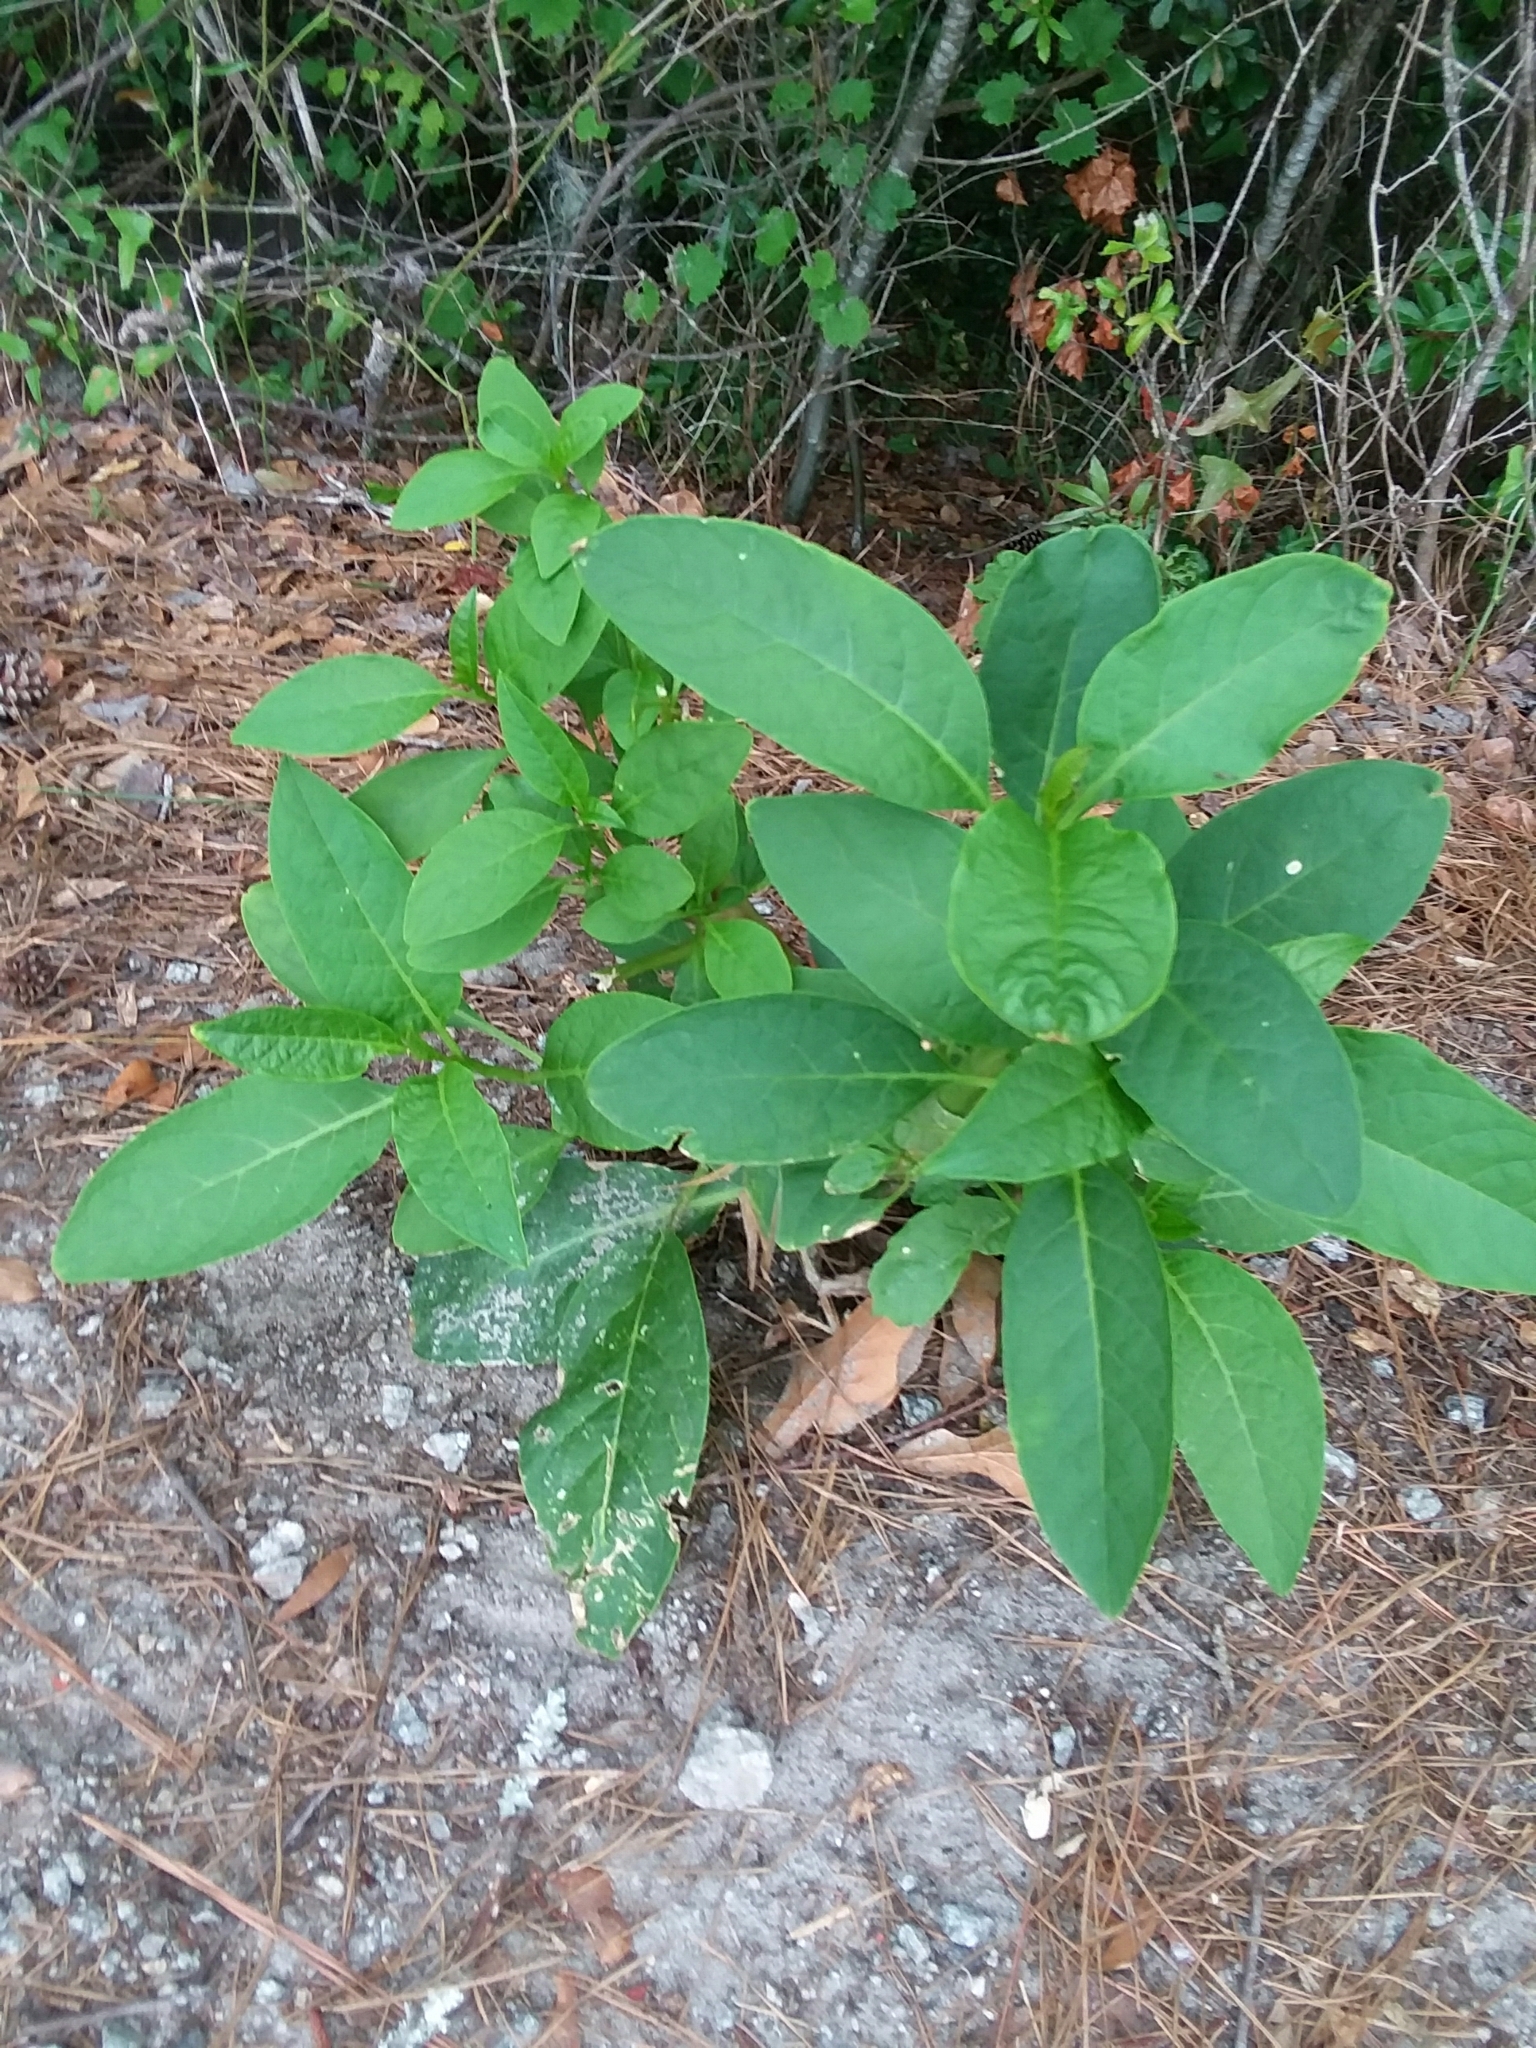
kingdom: Plantae
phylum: Tracheophyta
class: Magnoliopsida
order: Caryophyllales
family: Phytolaccaceae
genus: Phytolacca
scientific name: Phytolacca americana
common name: American pokeweed
